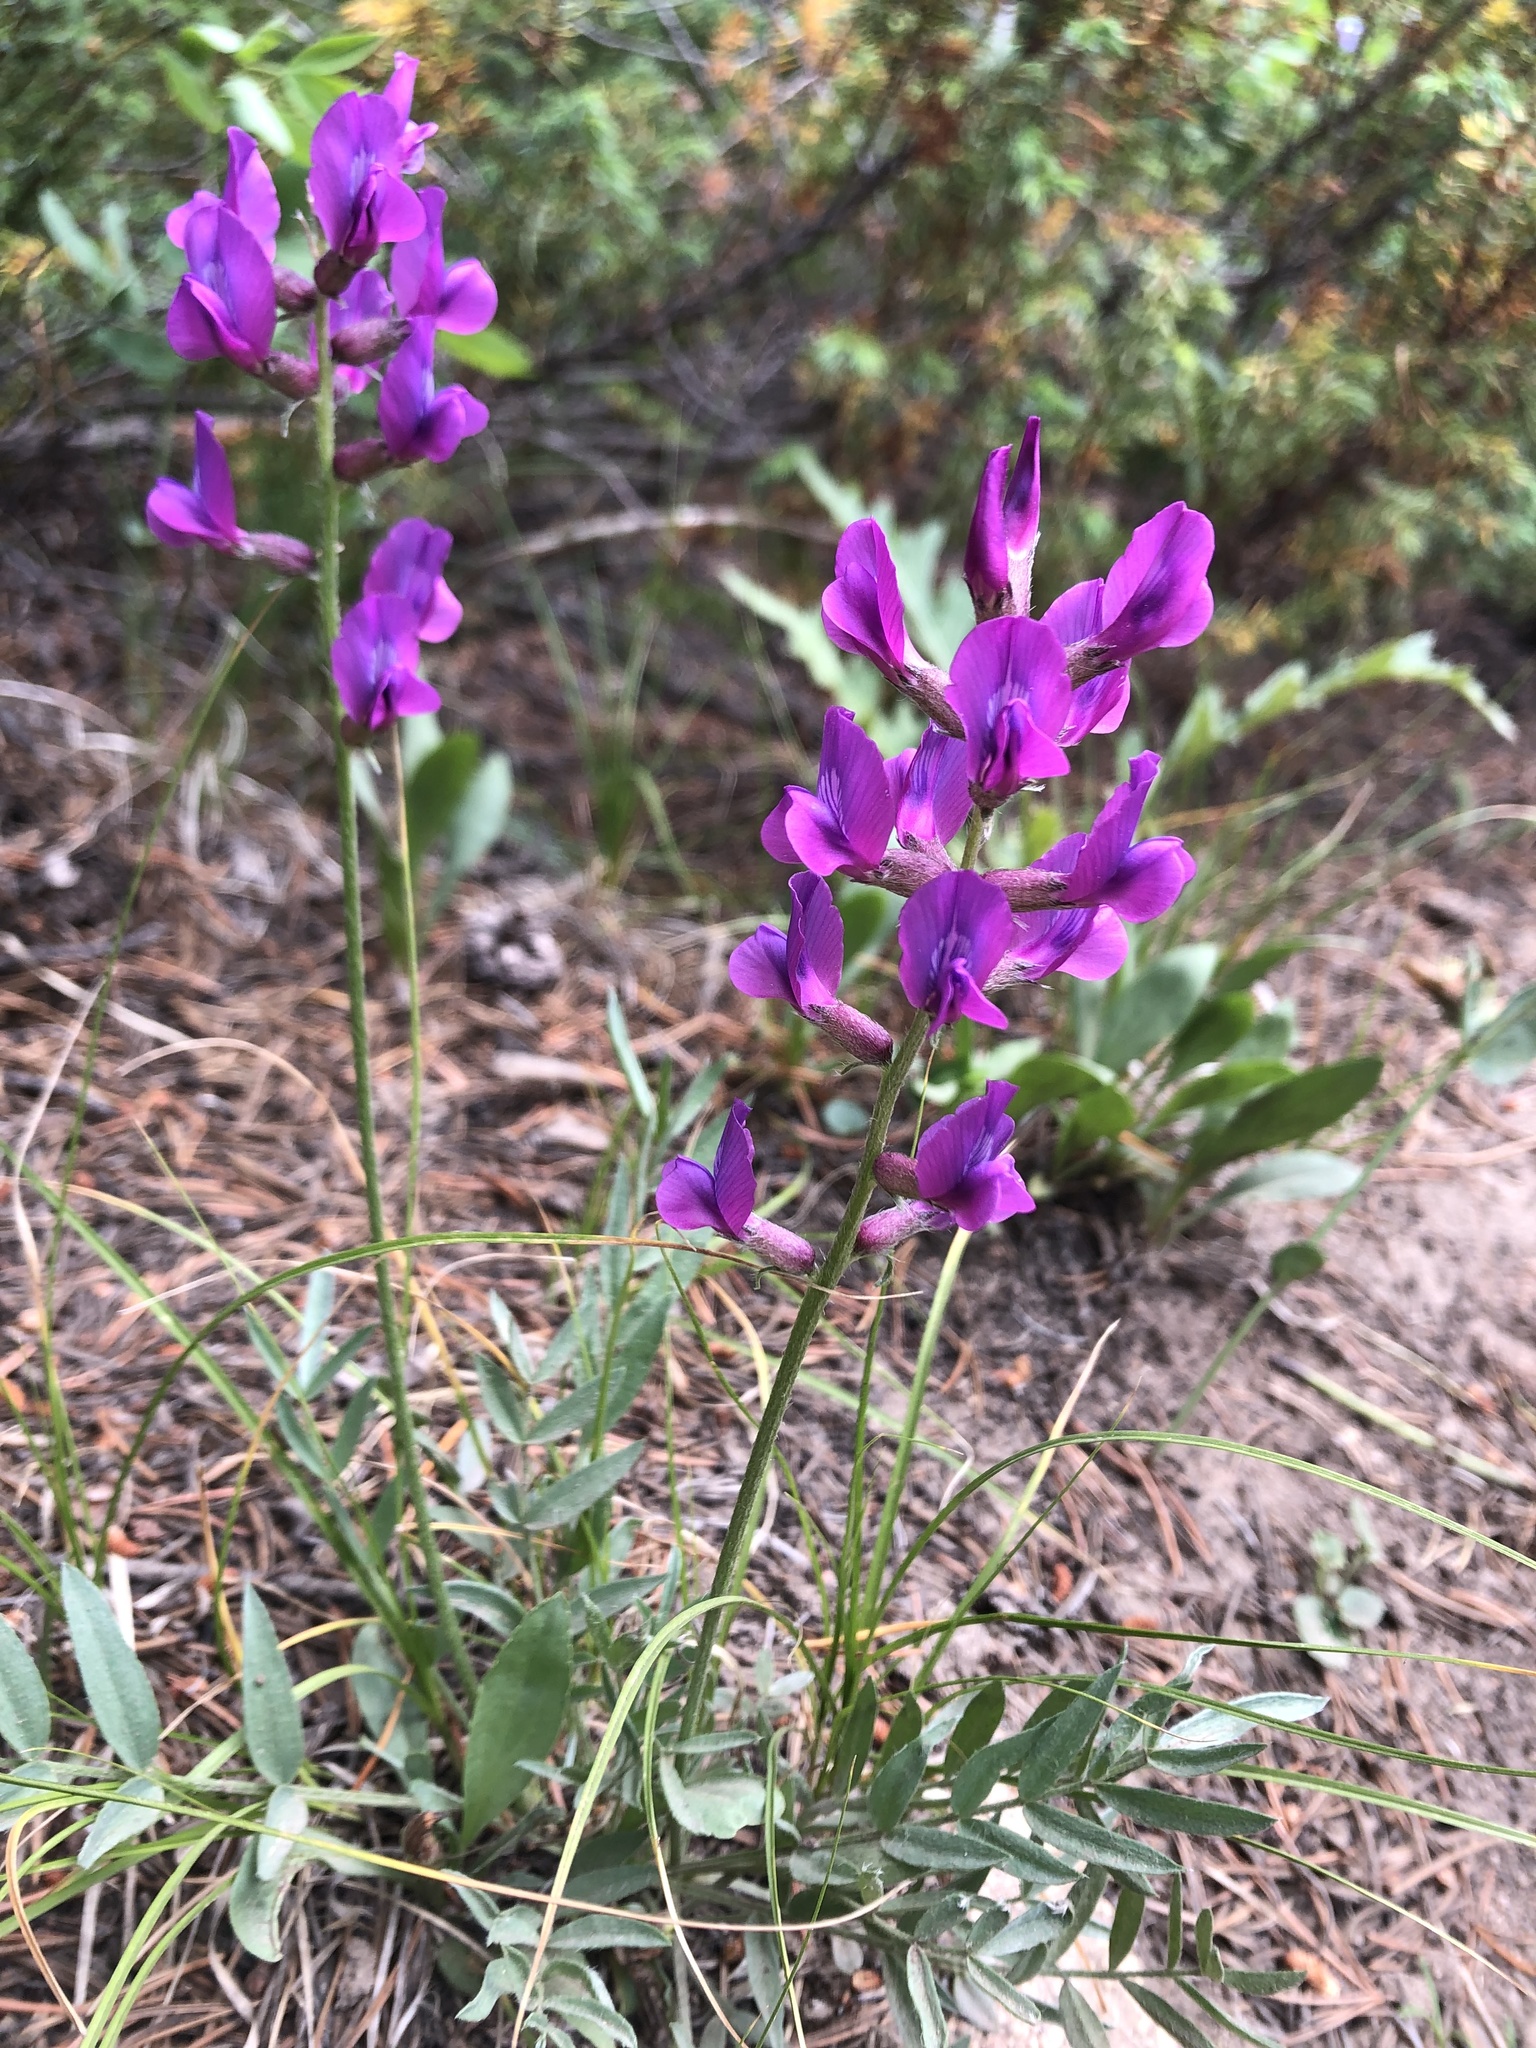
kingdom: Plantae
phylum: Tracheophyta
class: Magnoliopsida
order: Fabales
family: Fabaceae
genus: Oxytropis
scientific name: Oxytropis lambertii
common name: Purple locoweed
